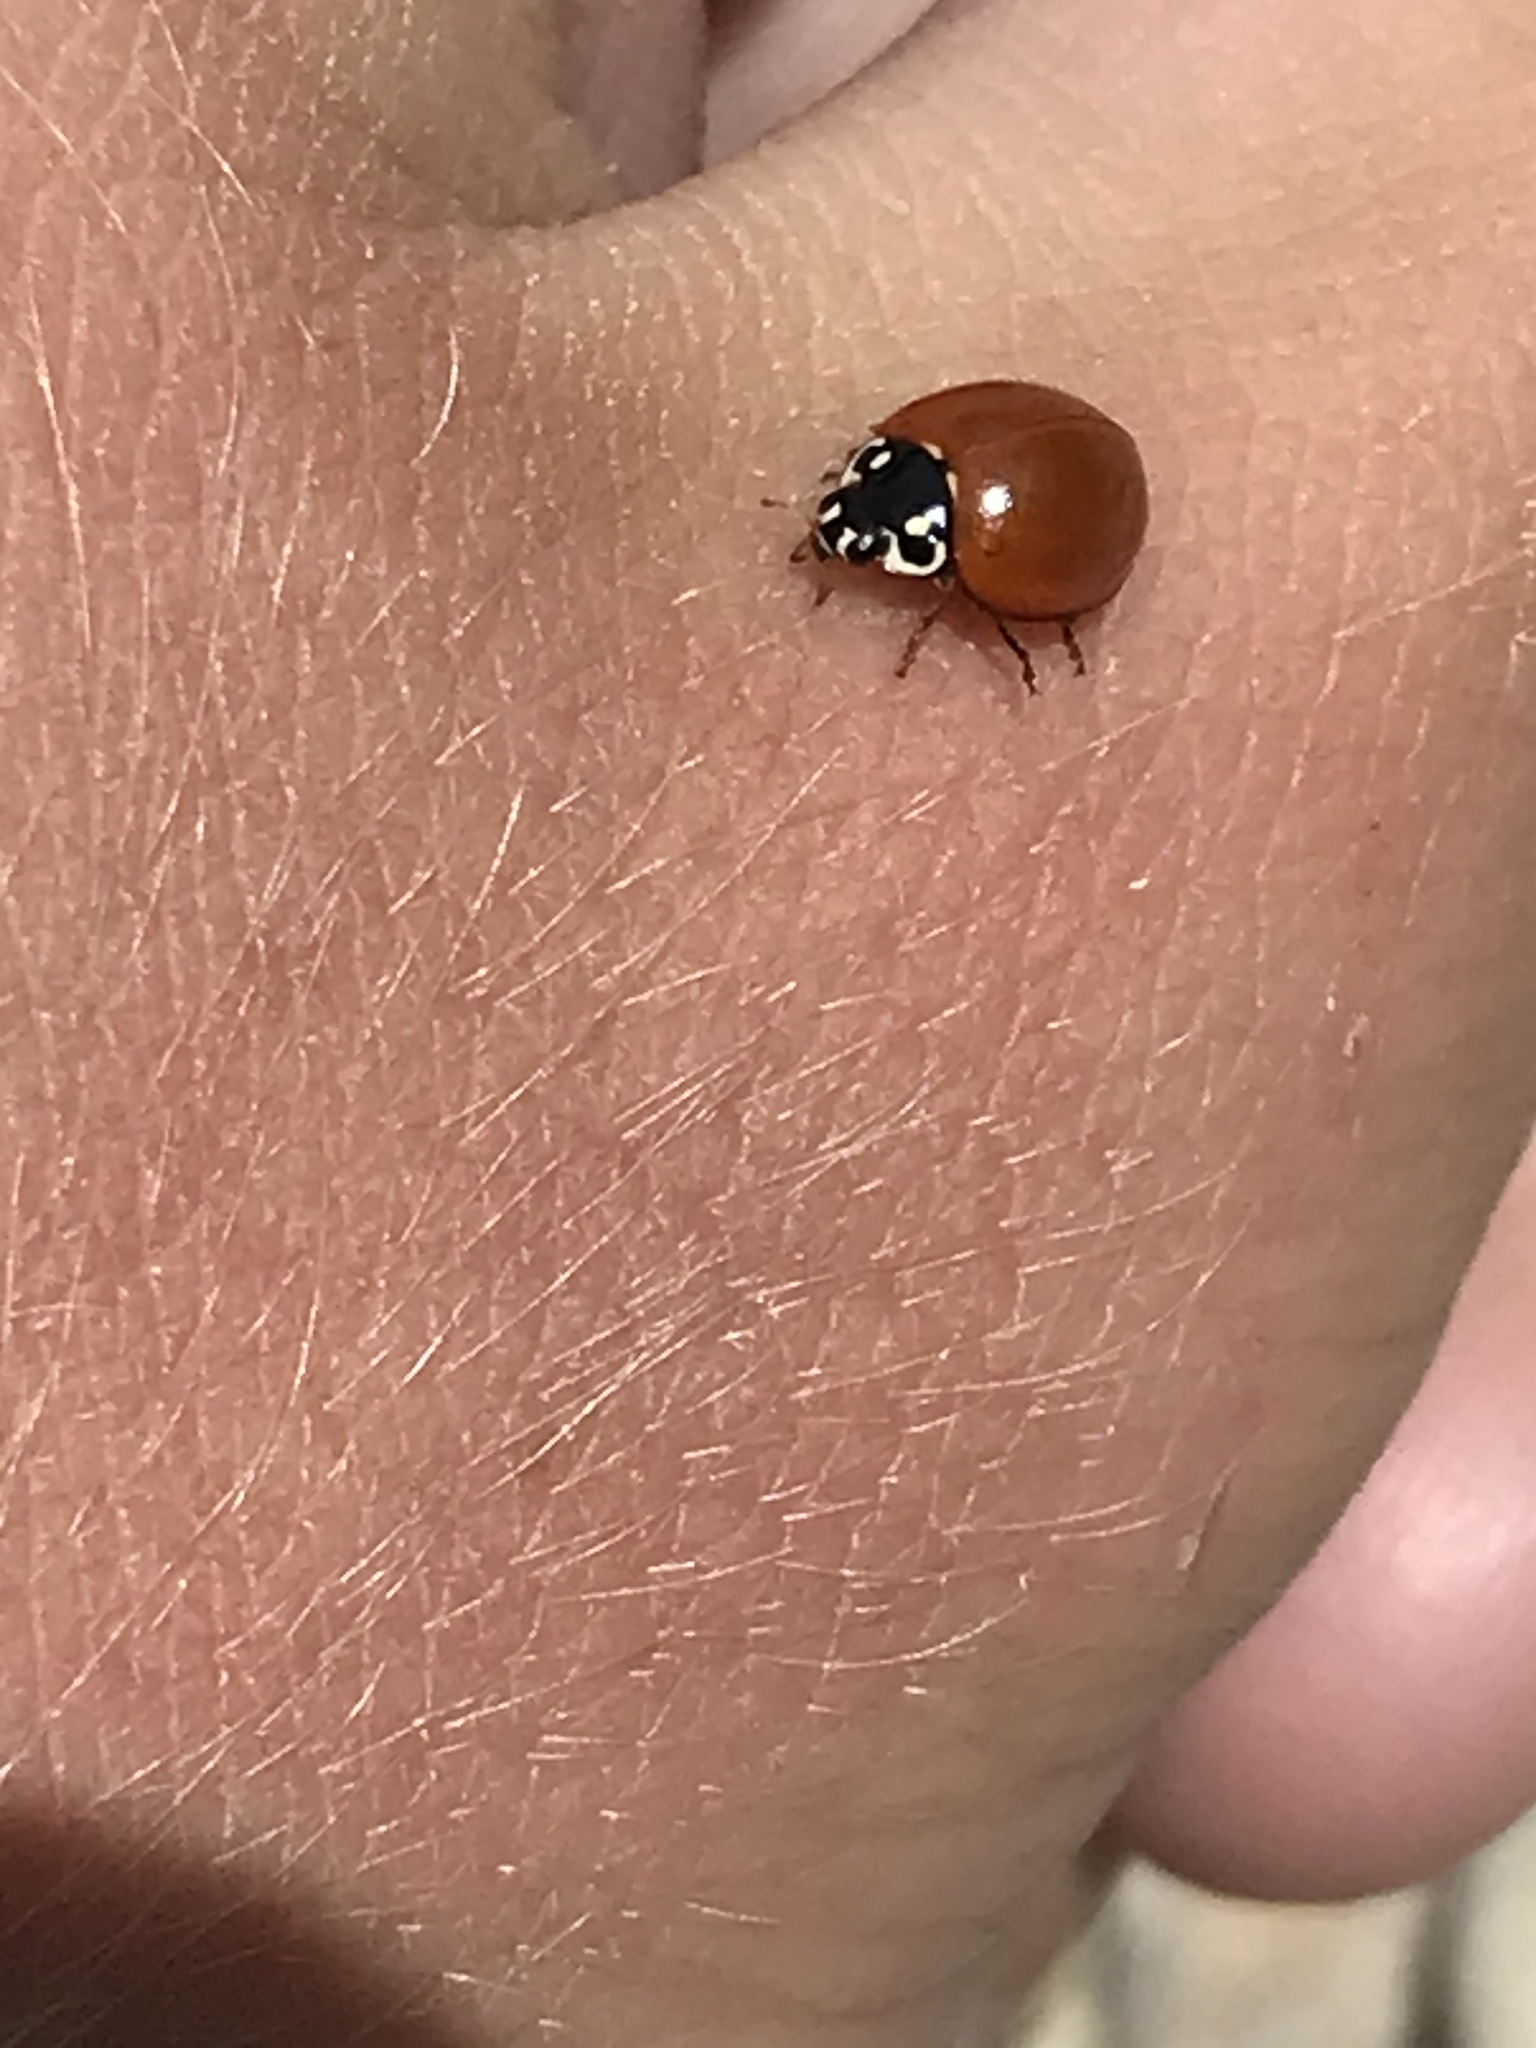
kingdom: Animalia
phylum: Arthropoda
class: Insecta
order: Coleoptera
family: Coccinellidae
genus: Cycloneda
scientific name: Cycloneda sanguinea
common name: Ladybird beetle
